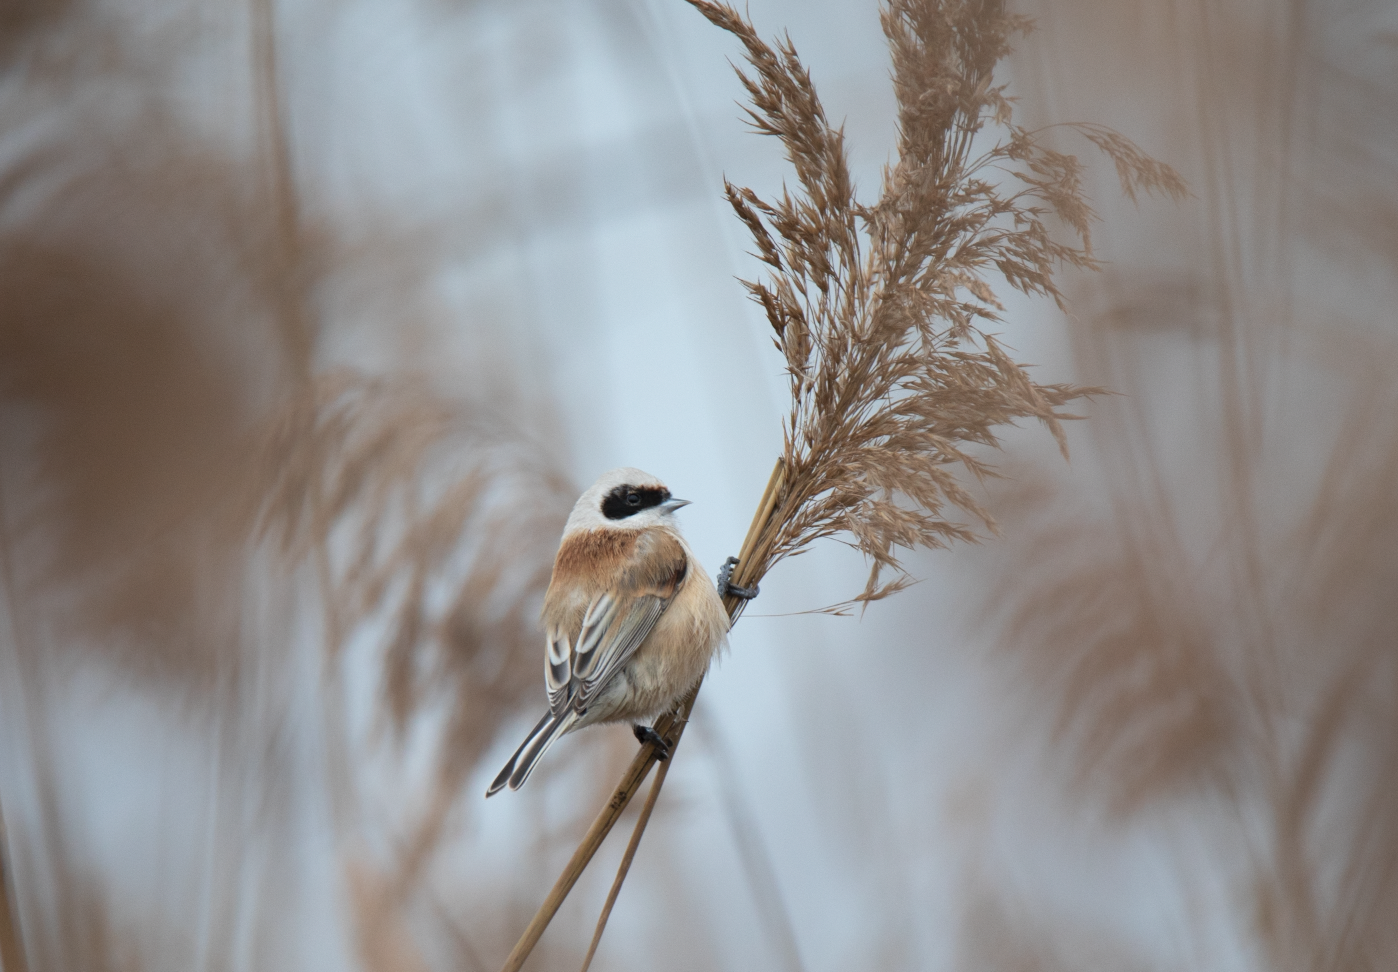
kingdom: Animalia
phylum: Chordata
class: Aves
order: Passeriformes
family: Remizidae
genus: Remiz
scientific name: Remiz pendulinus
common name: Eurasian penduline tit
